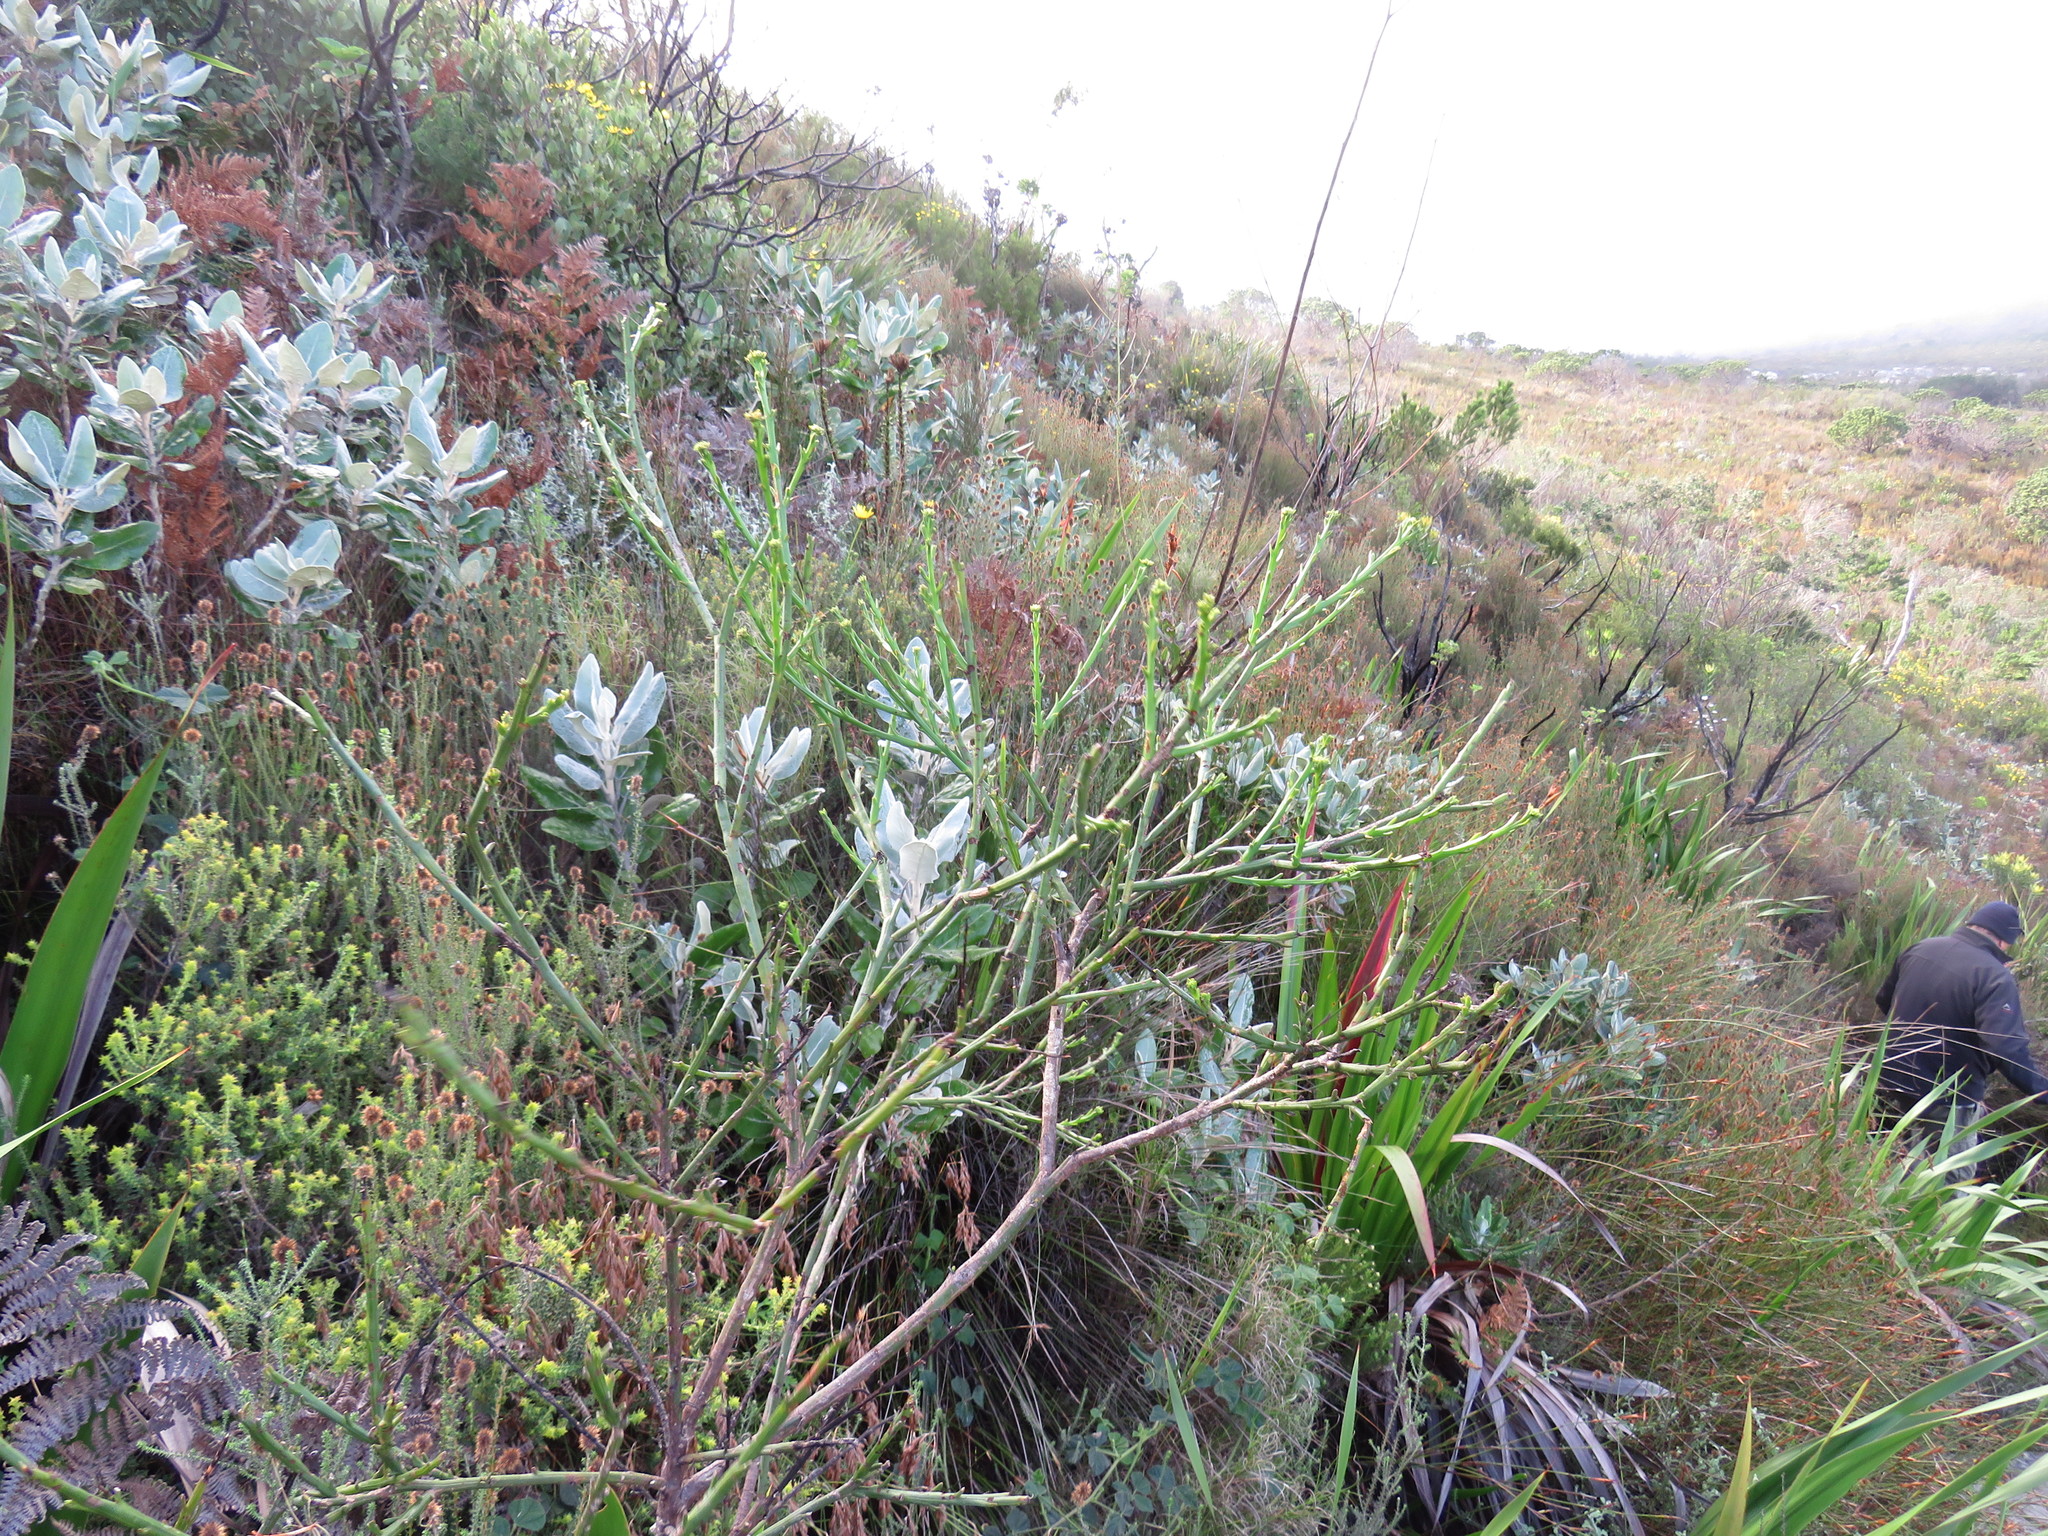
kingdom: Plantae
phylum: Tracheophyta
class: Magnoliopsida
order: Santalales
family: Thesiaceae
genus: Thesium
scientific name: Thesium strictum
